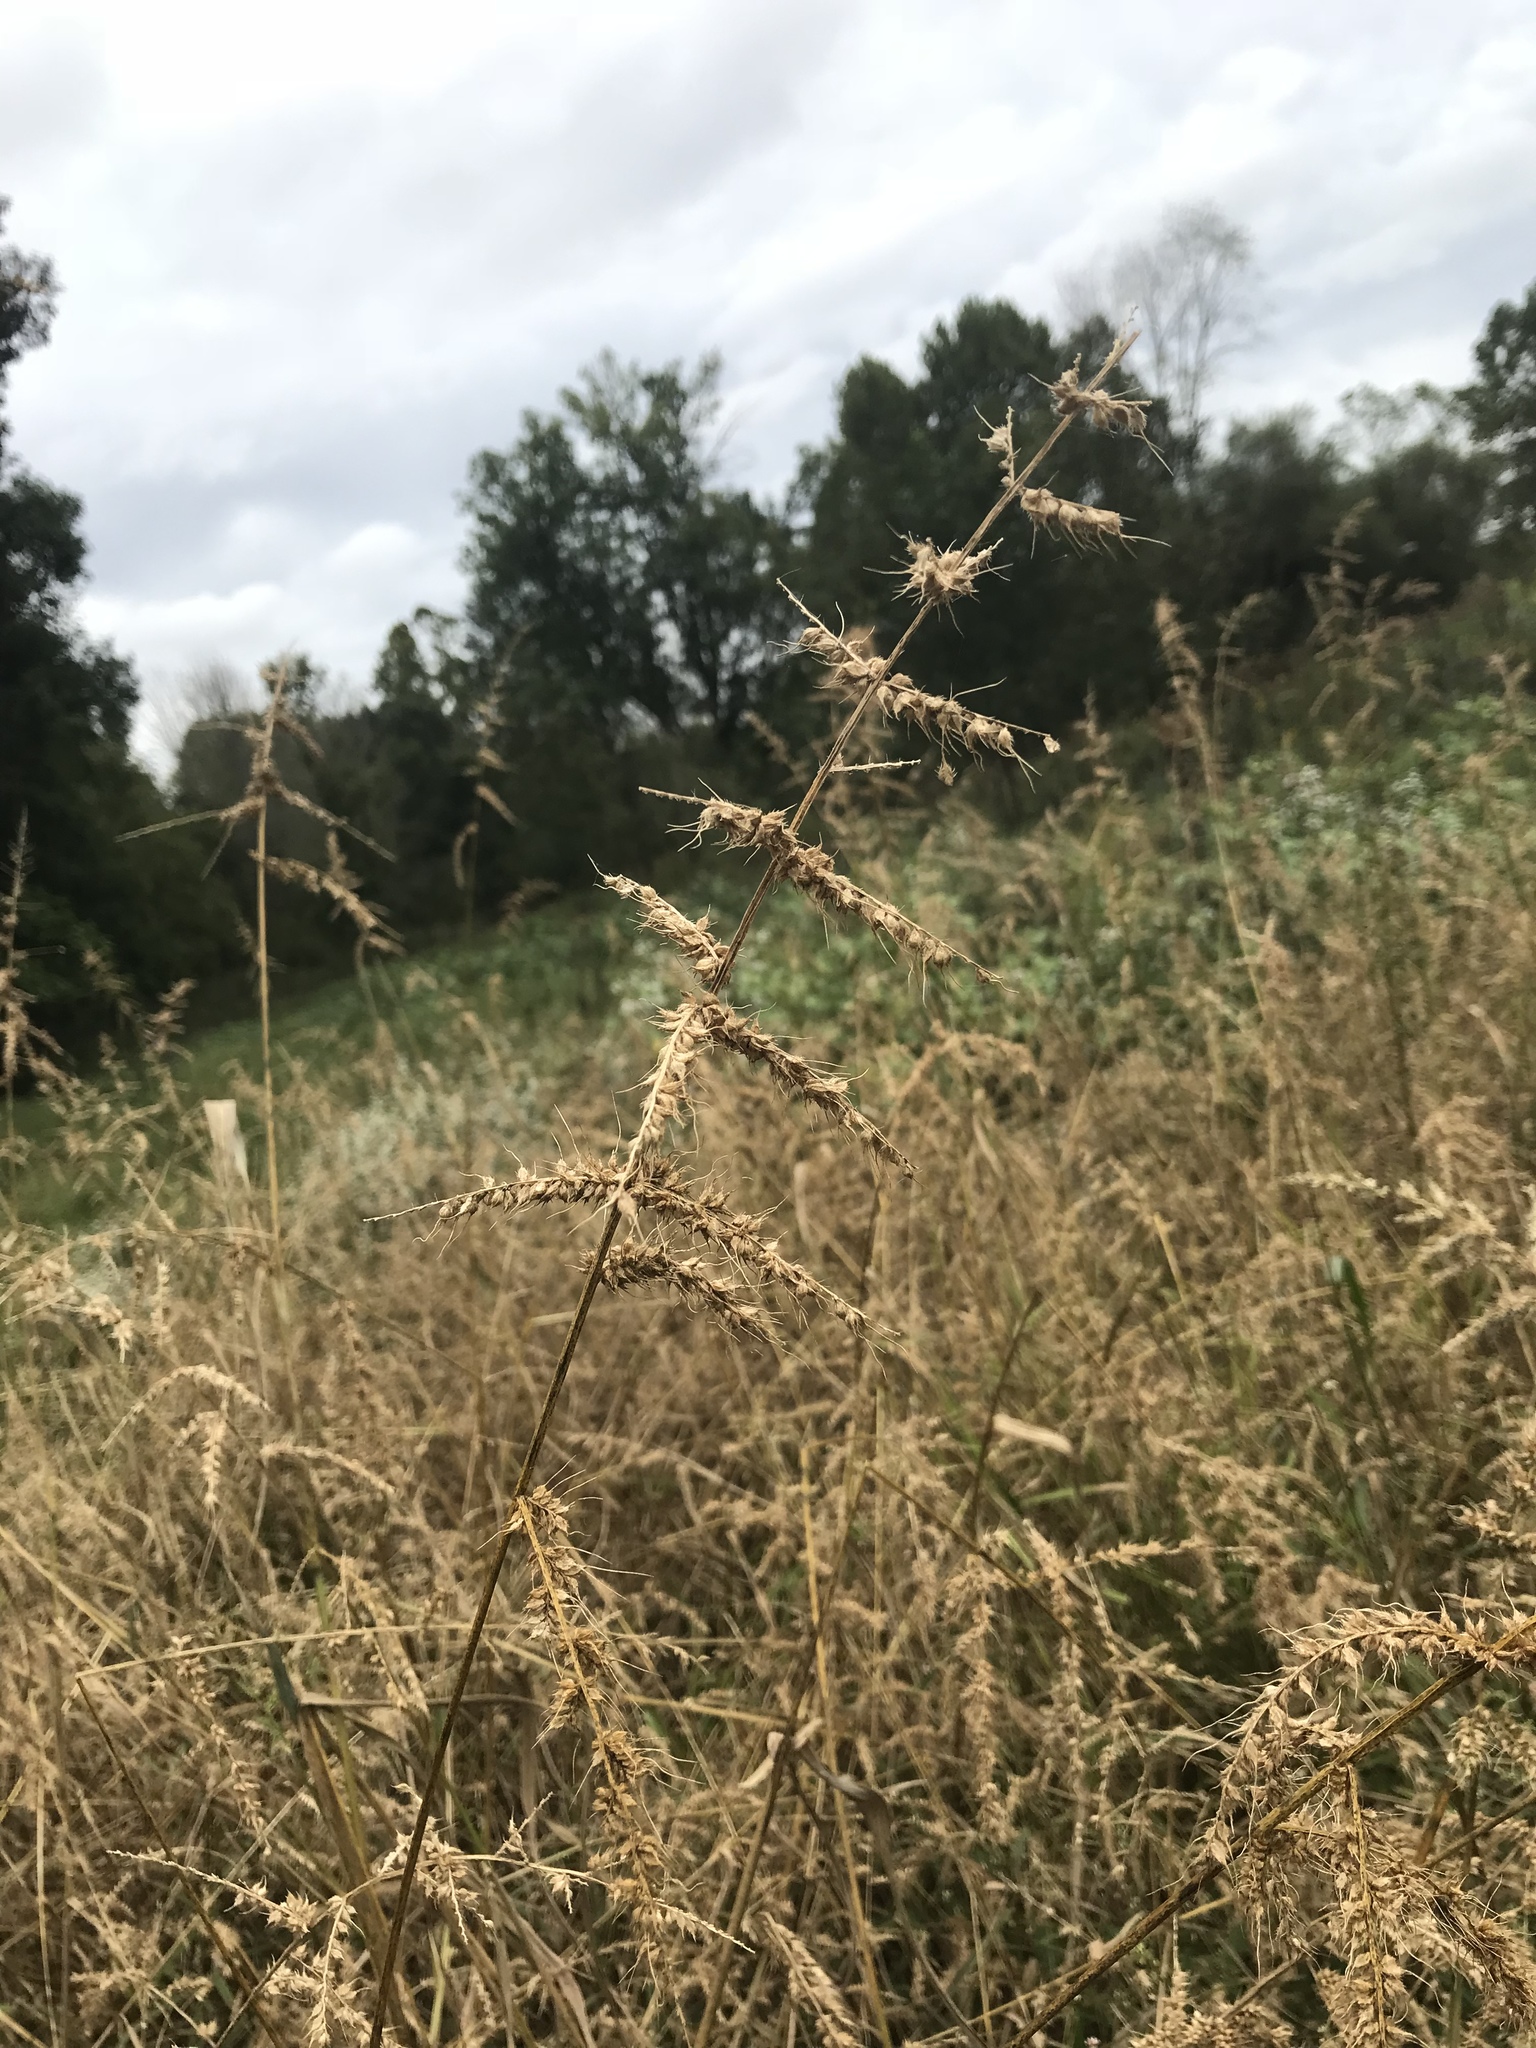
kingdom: Plantae
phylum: Tracheophyta
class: Liliopsida
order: Poales
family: Poaceae
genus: Echinochloa
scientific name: Echinochloa crus-galli
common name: Cockspur
